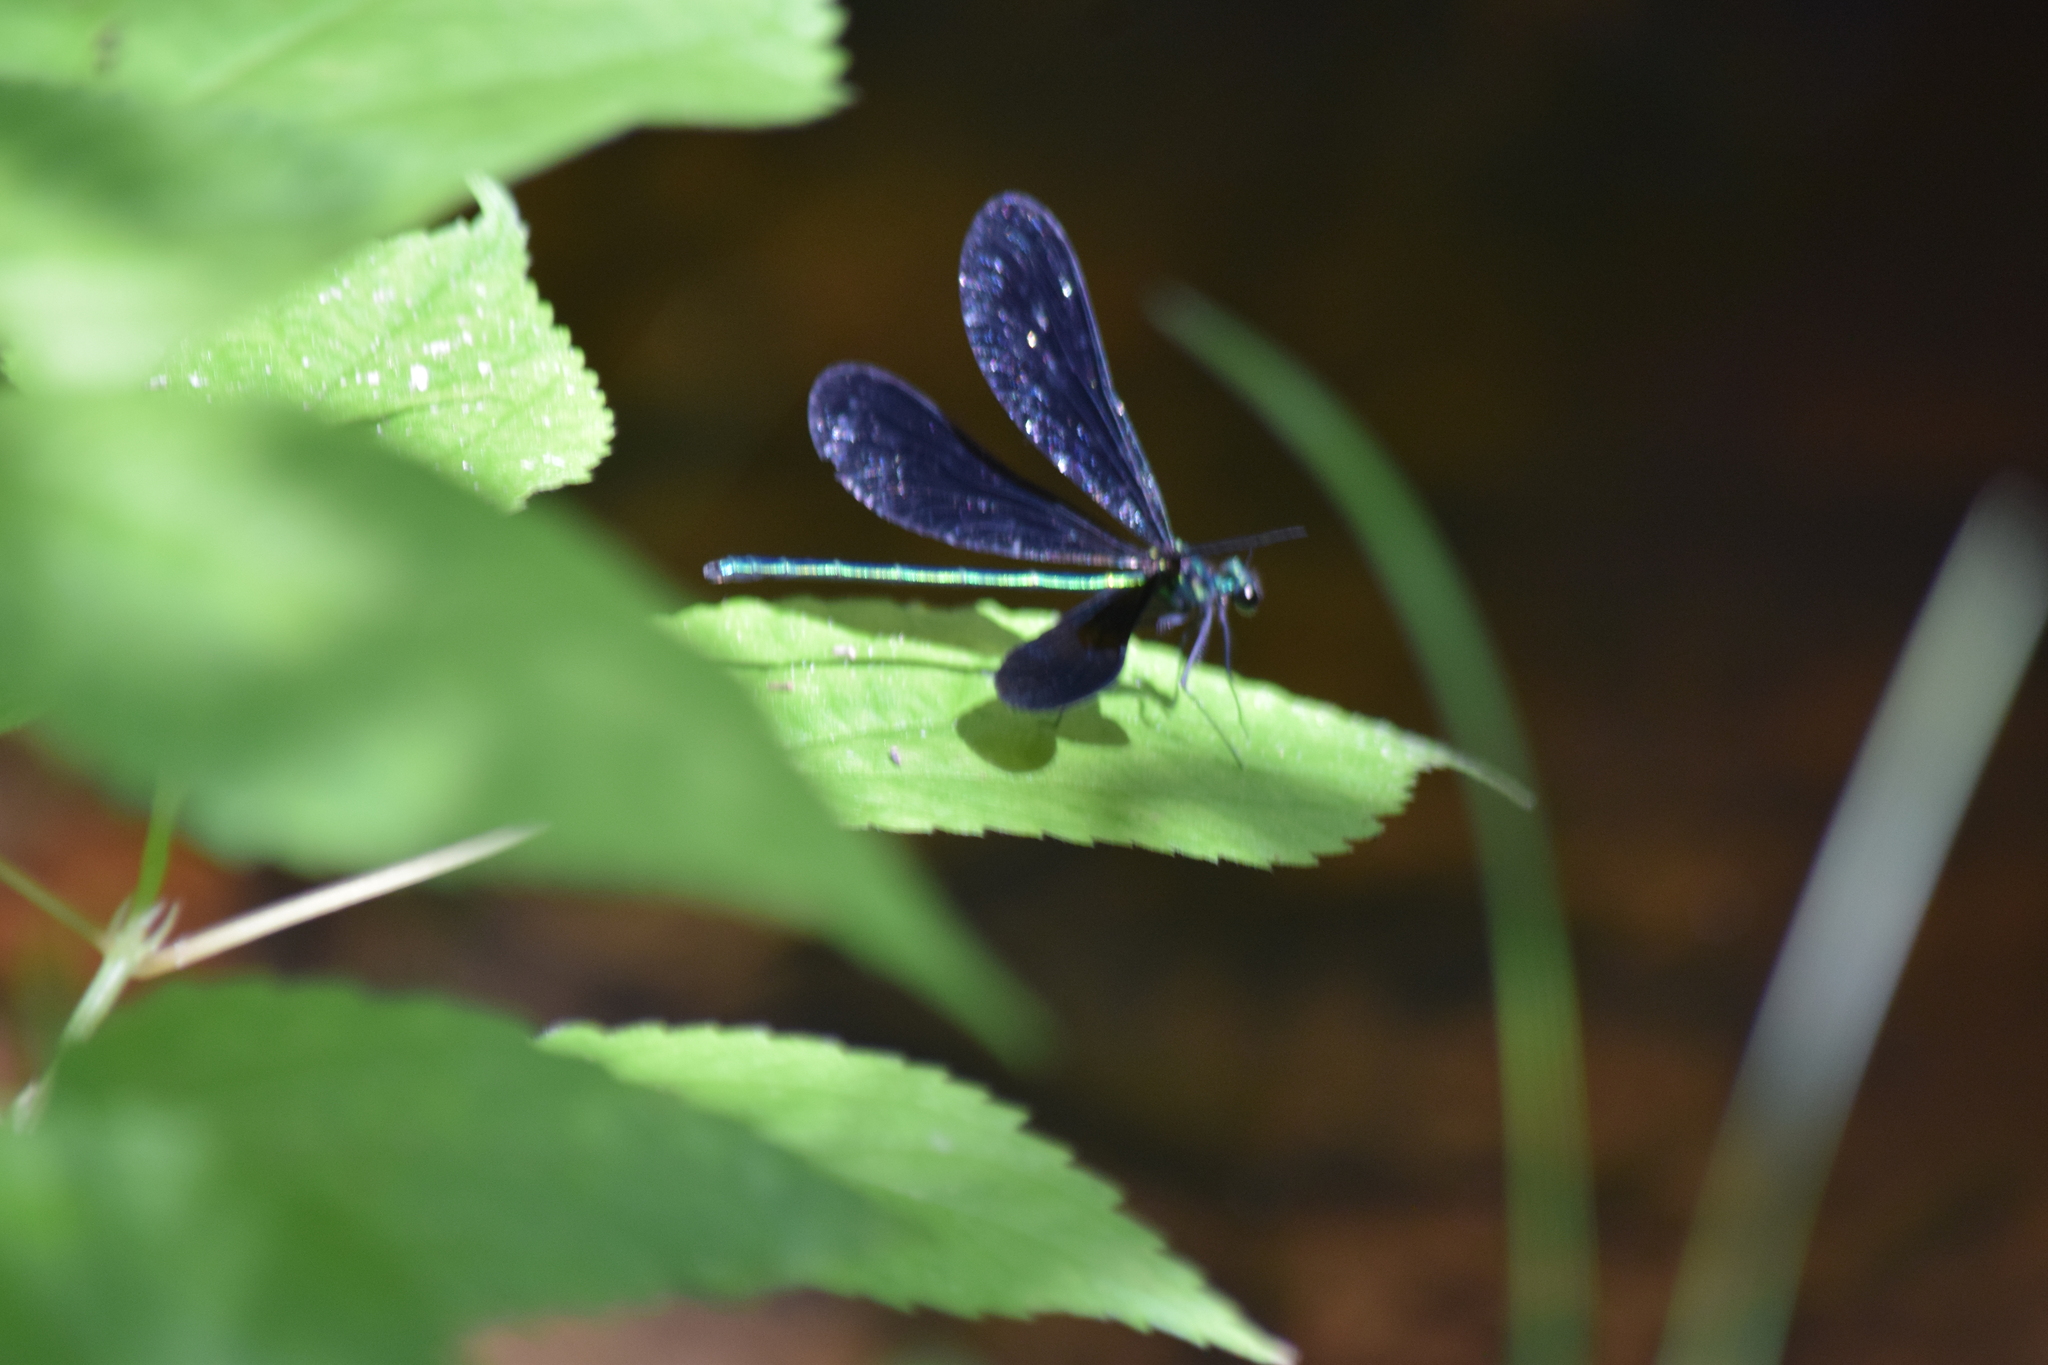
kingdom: Animalia
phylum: Arthropoda
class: Insecta
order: Odonata
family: Calopterygidae
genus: Calopteryx
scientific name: Calopteryx maculata
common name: Ebony jewelwing
